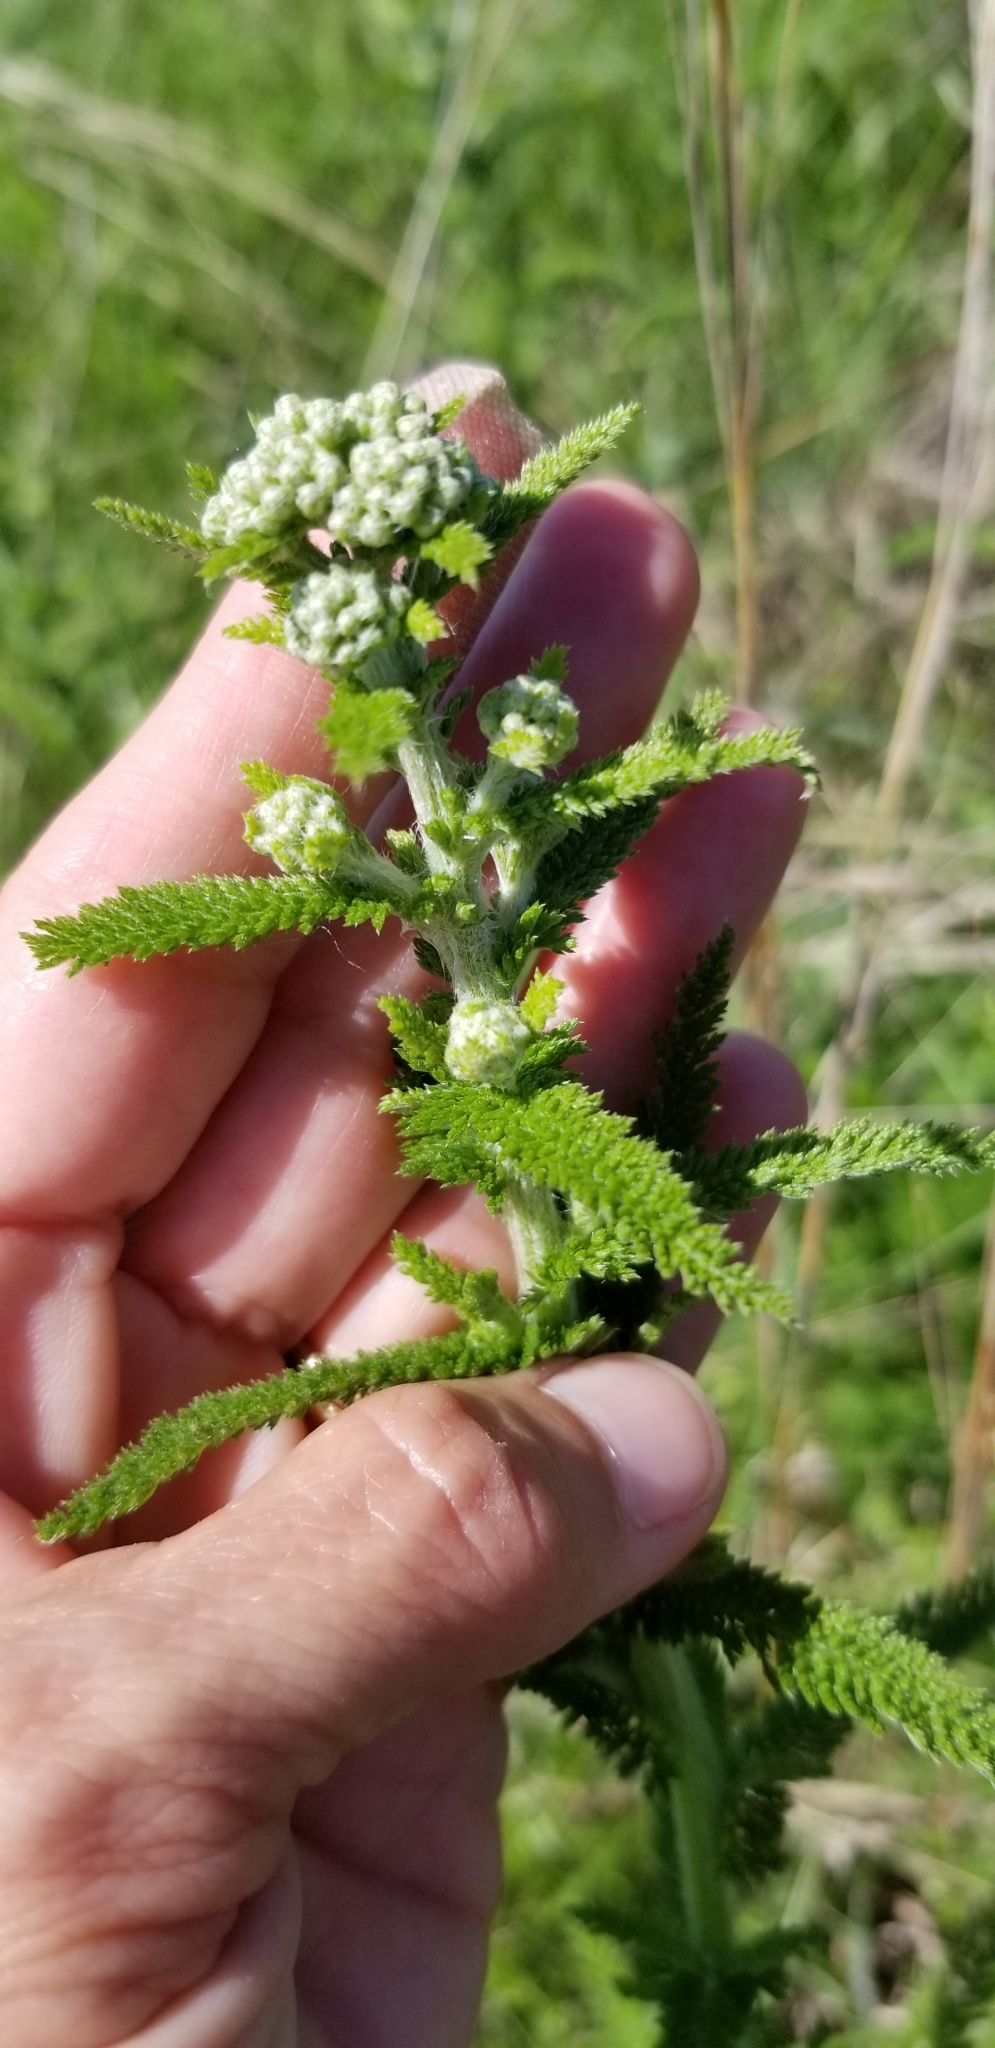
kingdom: Plantae
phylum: Tracheophyta
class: Magnoliopsida
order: Asterales
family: Asteraceae
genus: Achillea
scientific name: Achillea millefolium
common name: Yarrow
